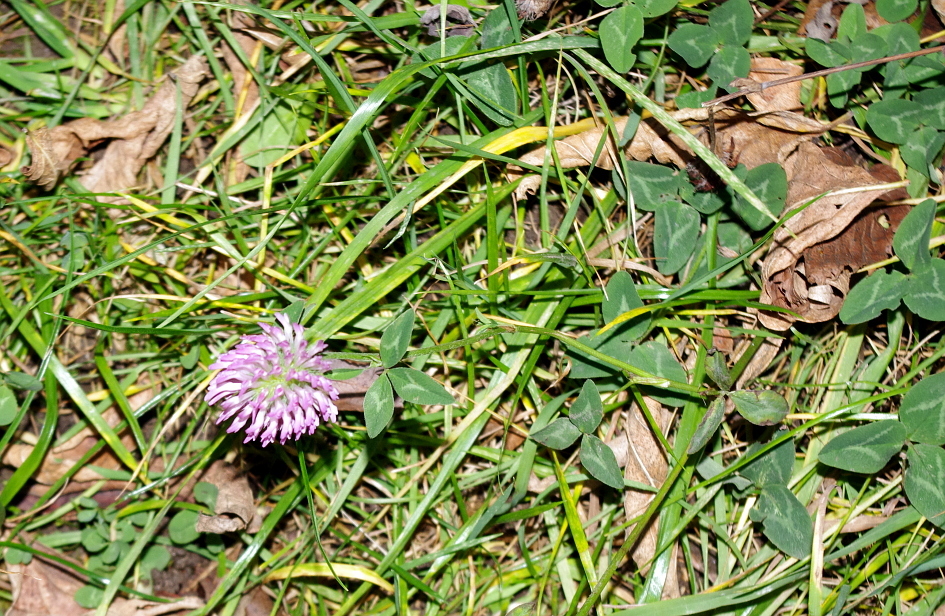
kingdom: Plantae
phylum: Tracheophyta
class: Magnoliopsida
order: Fabales
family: Fabaceae
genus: Trifolium
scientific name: Trifolium pratense
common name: Red clover
